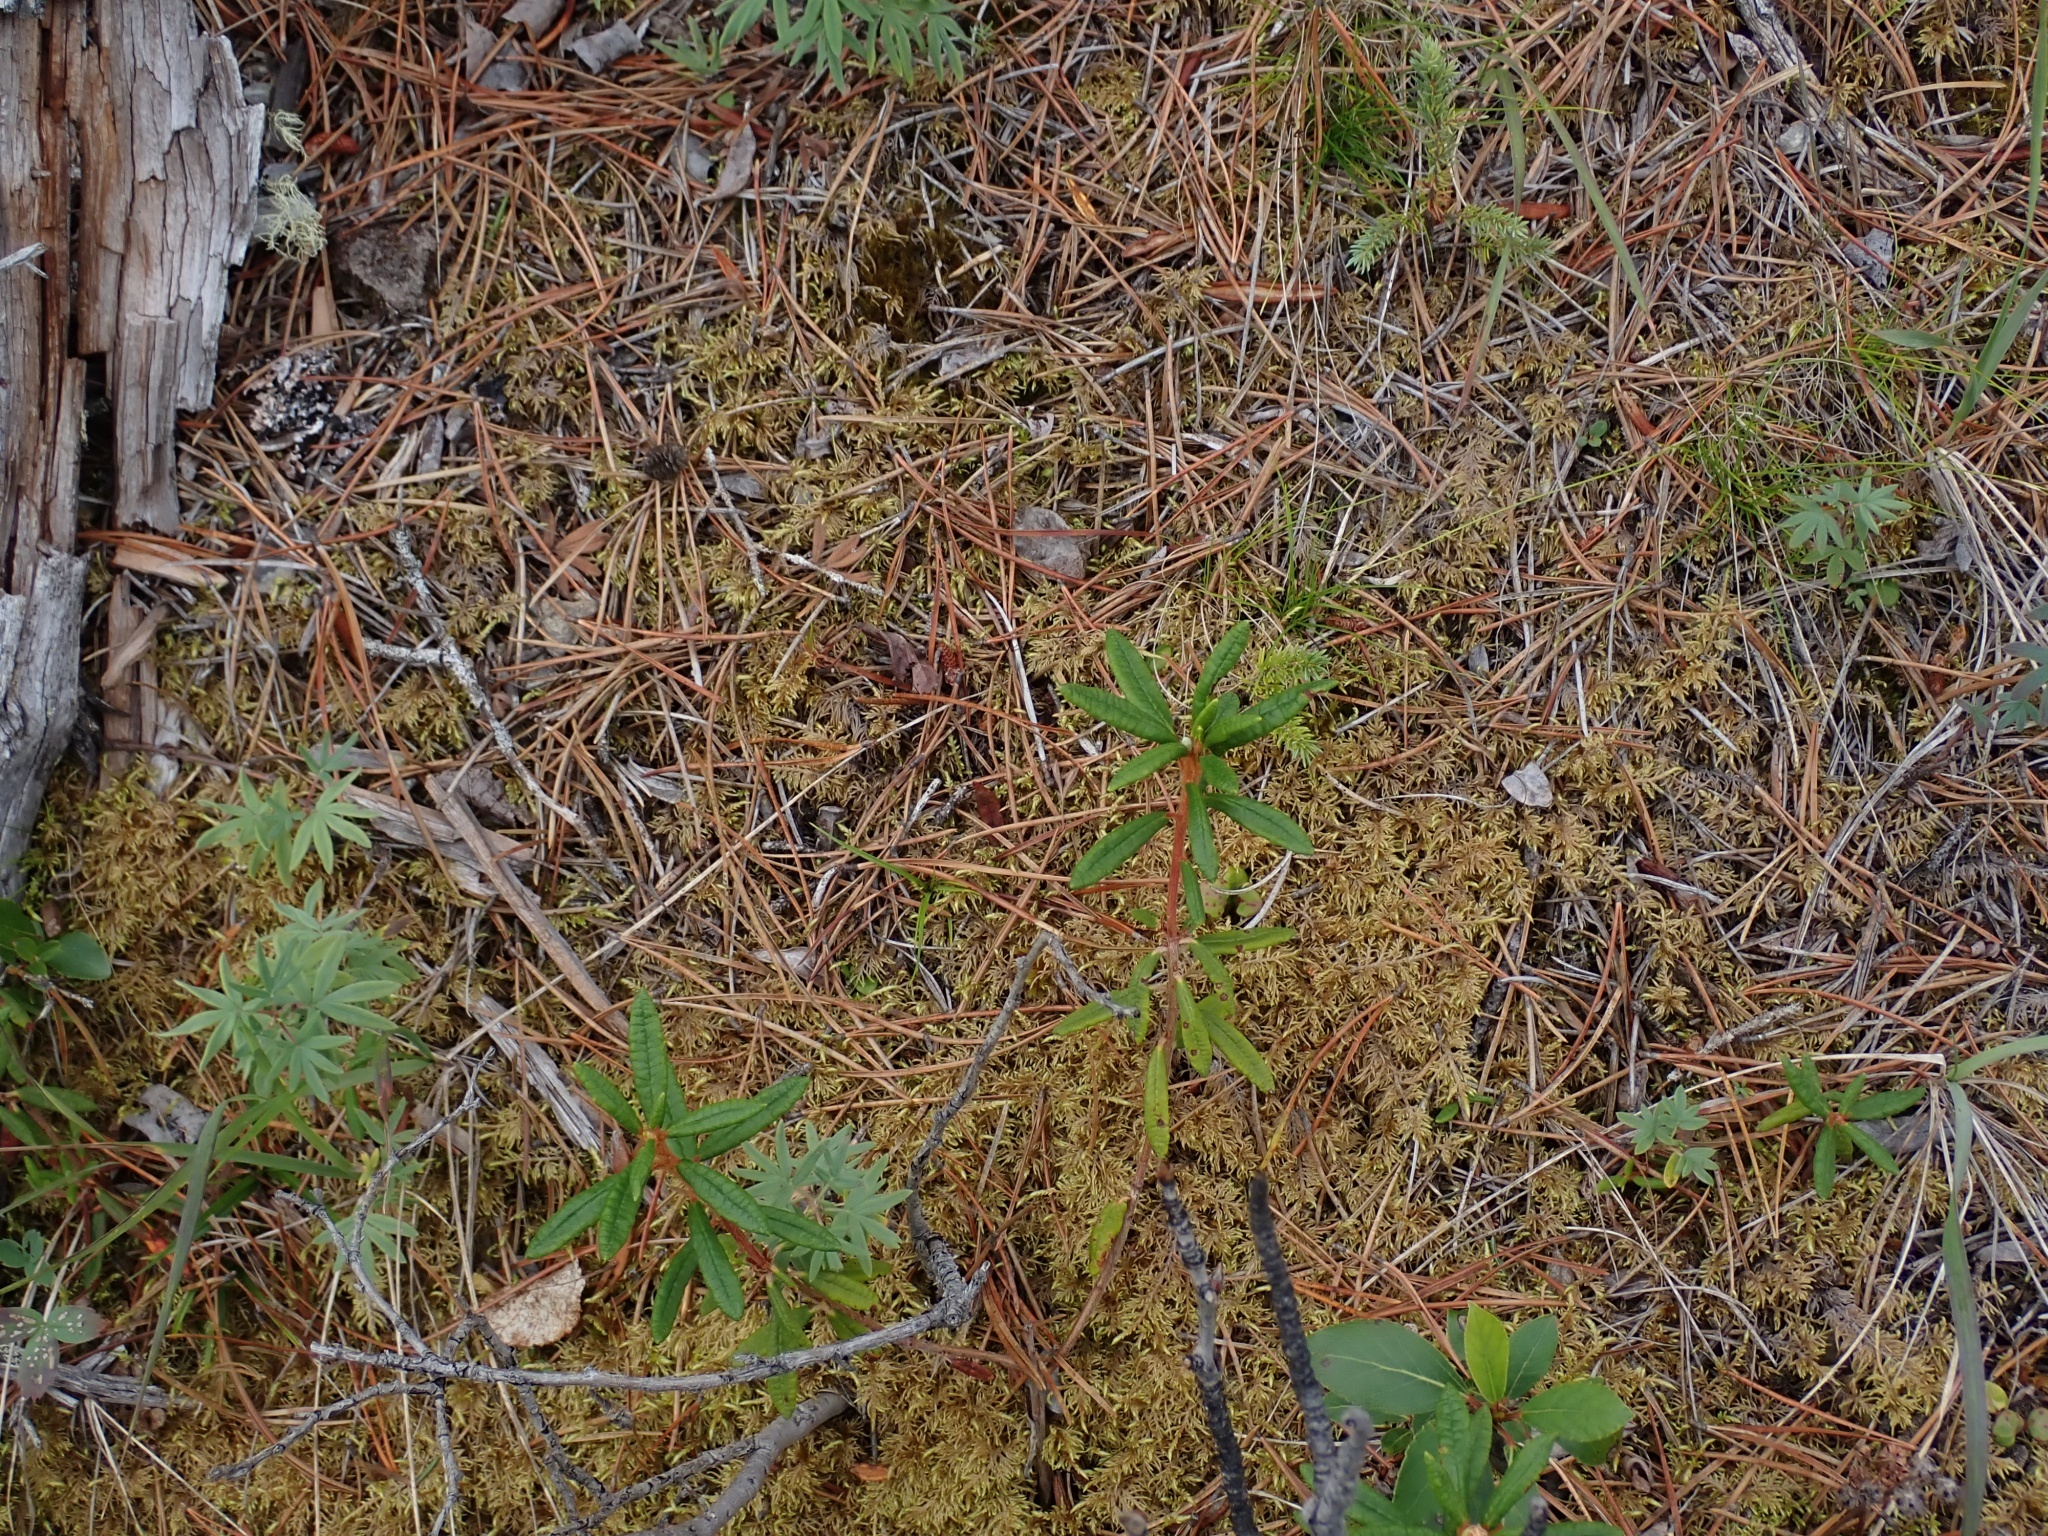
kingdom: Plantae
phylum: Tracheophyta
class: Magnoliopsida
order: Ericales
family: Ericaceae
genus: Rhododendron
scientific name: Rhododendron groenlandicum
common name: Bog labrador tea
